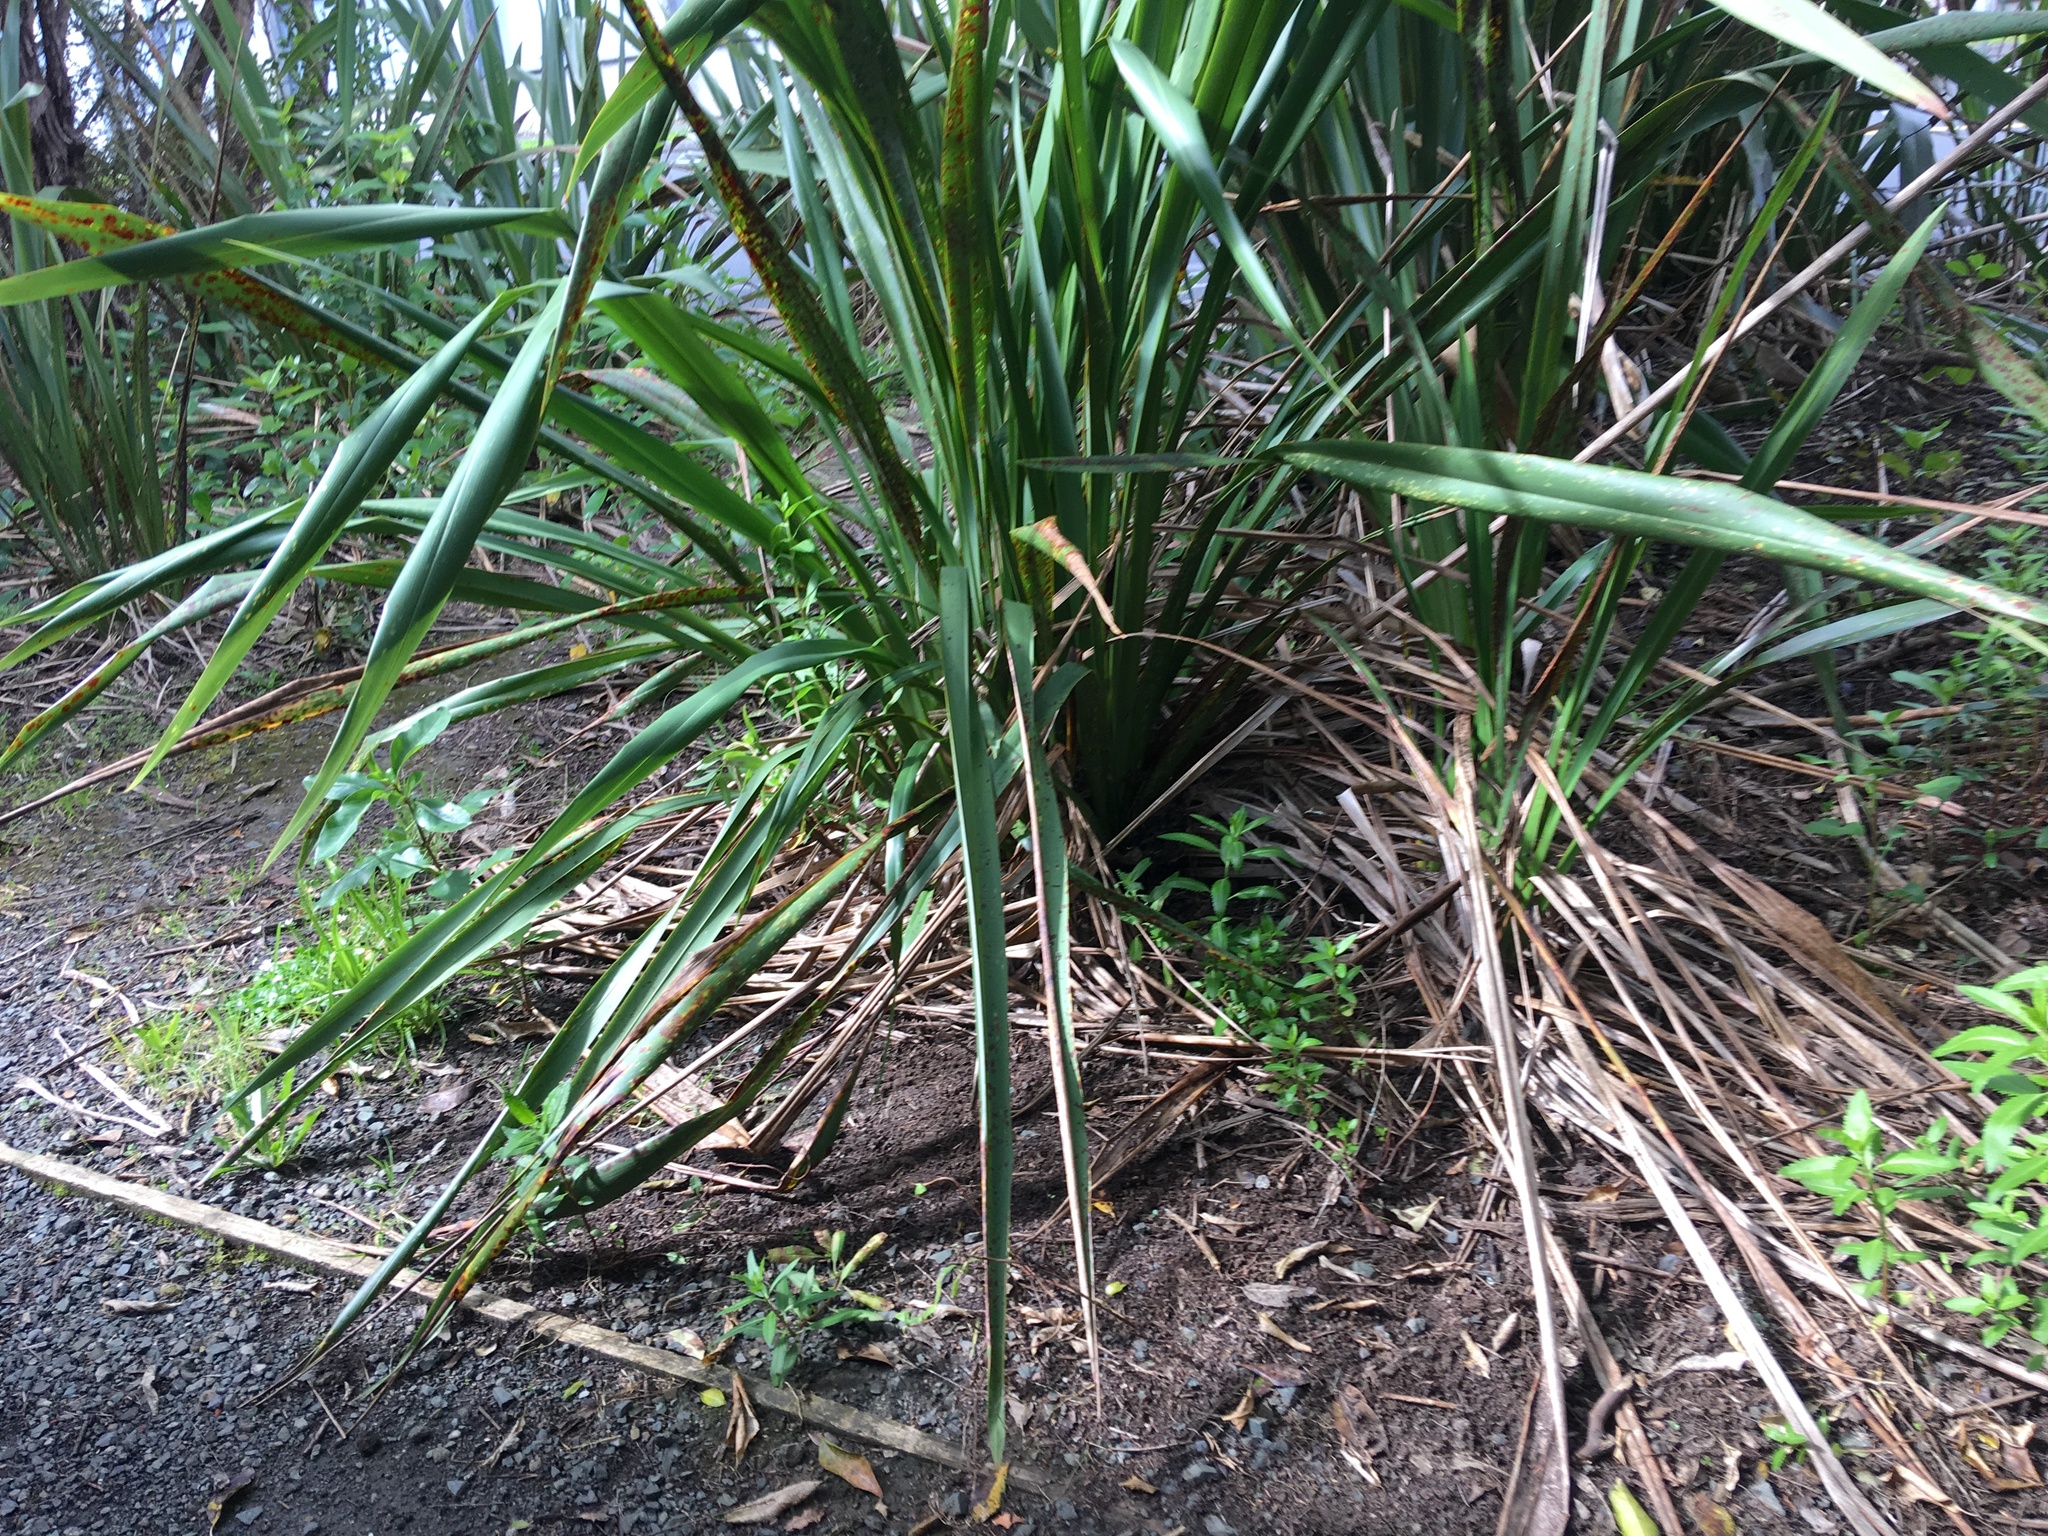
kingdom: Plantae
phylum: Tracheophyta
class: Liliopsida
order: Asparagales
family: Asphodelaceae
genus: Phormium
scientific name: Phormium tenax
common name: New zealand flax
